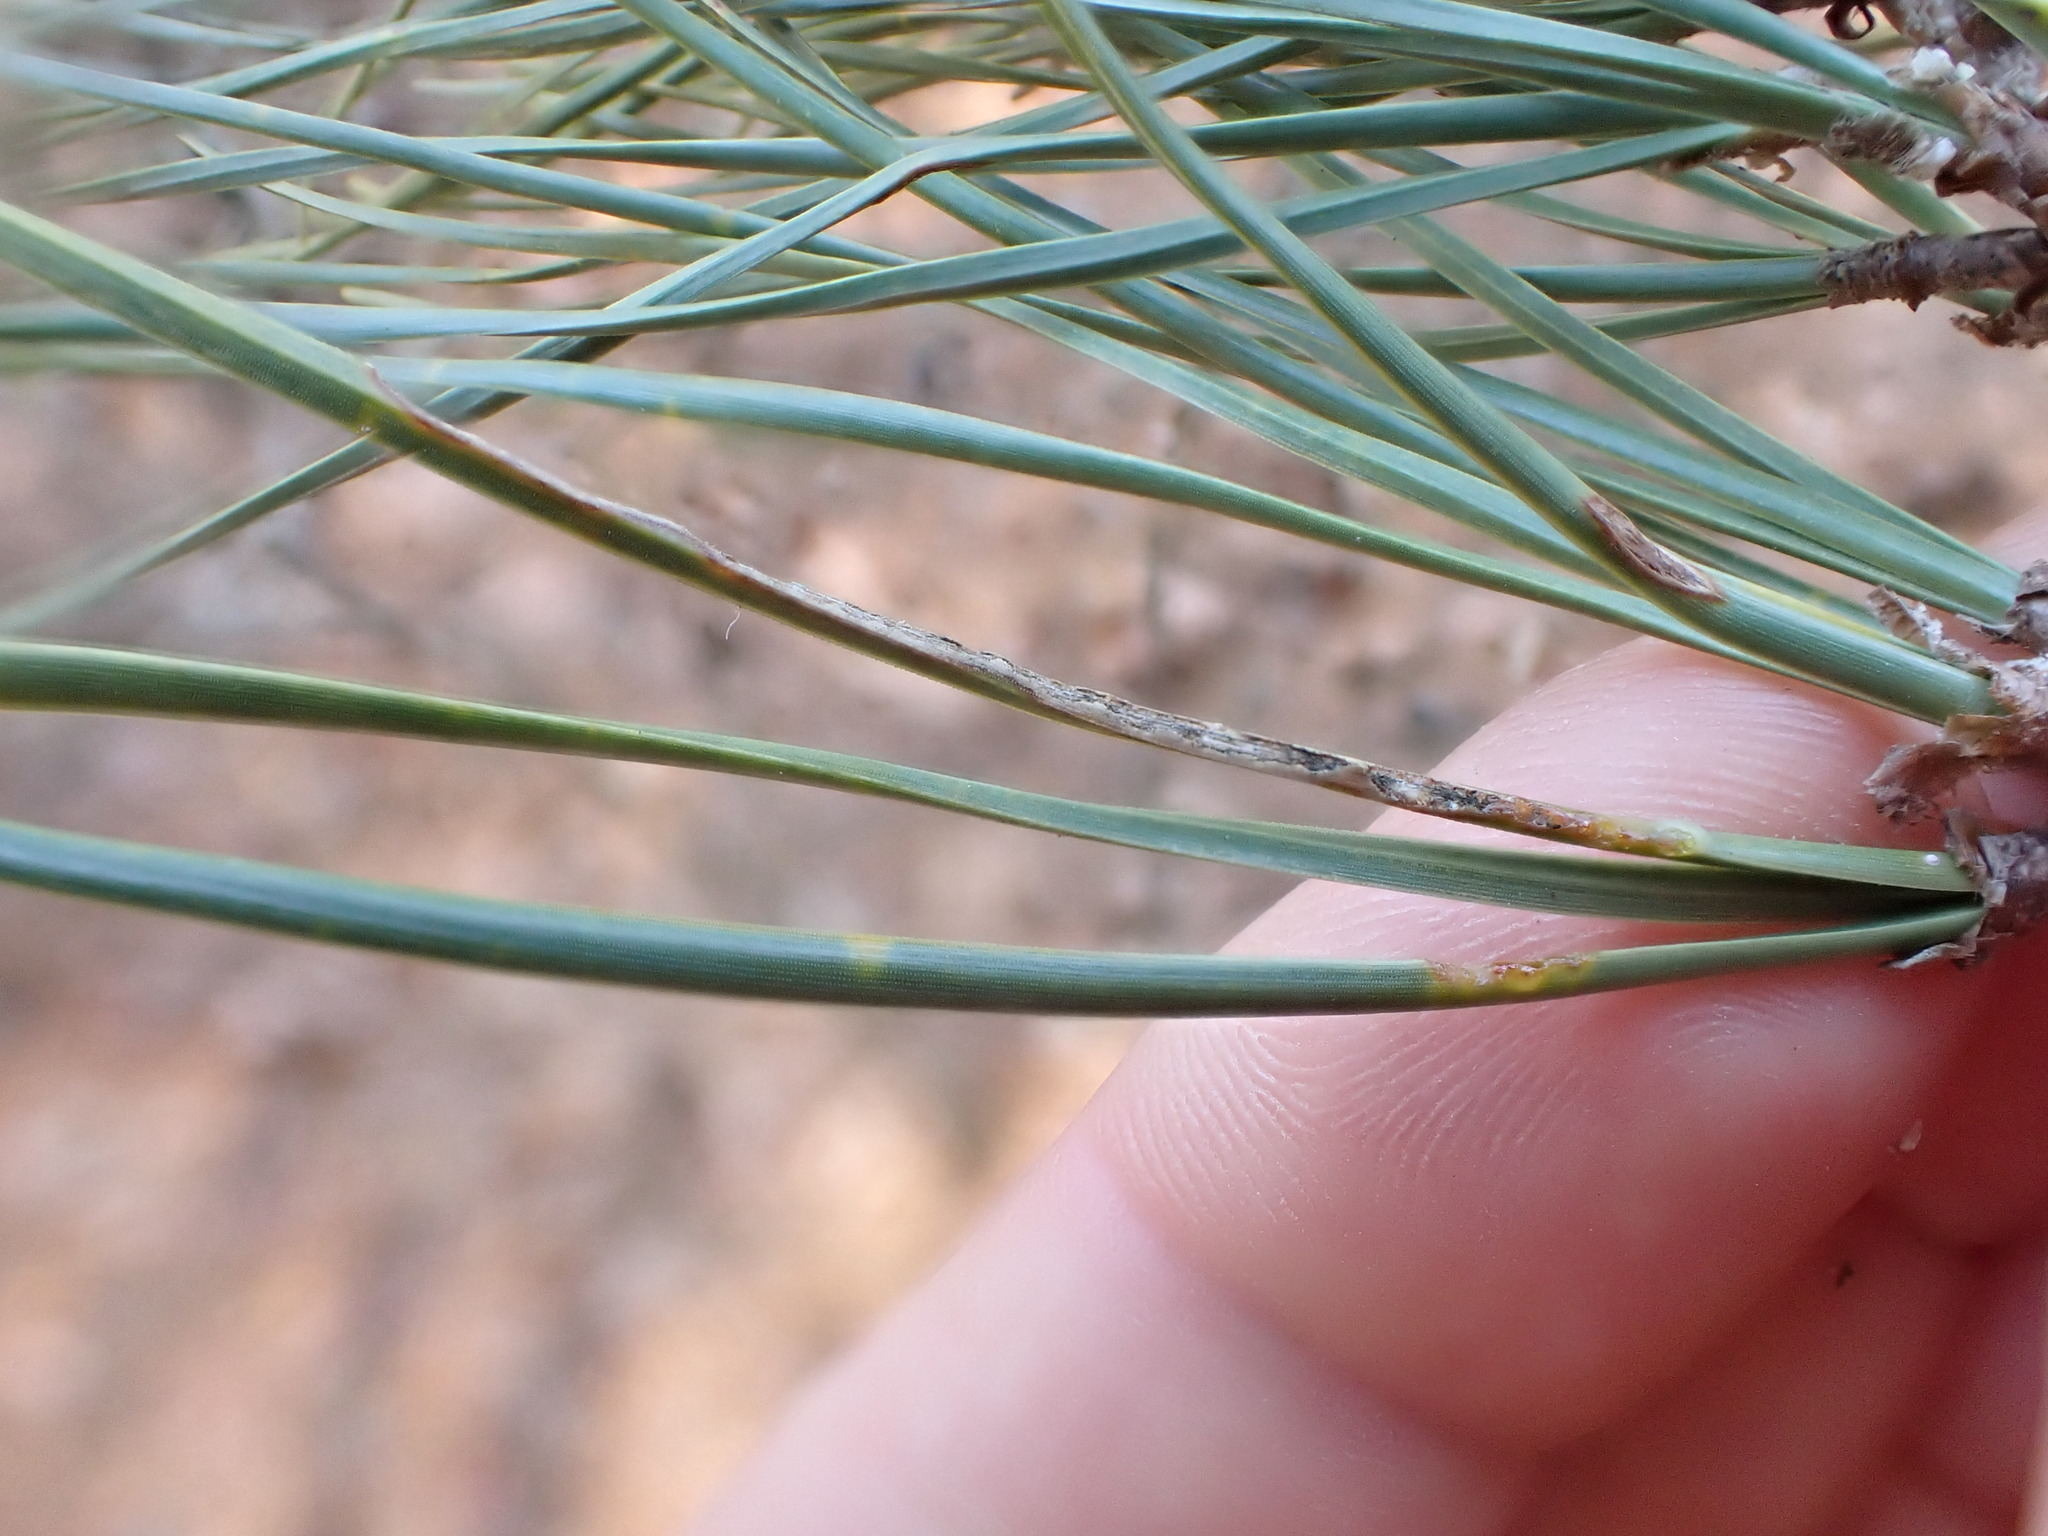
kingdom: Plantae
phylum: Tracheophyta
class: Pinopsida
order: Pinales
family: Pinaceae
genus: Pinus
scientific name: Pinus rigida
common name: Pitch pine
